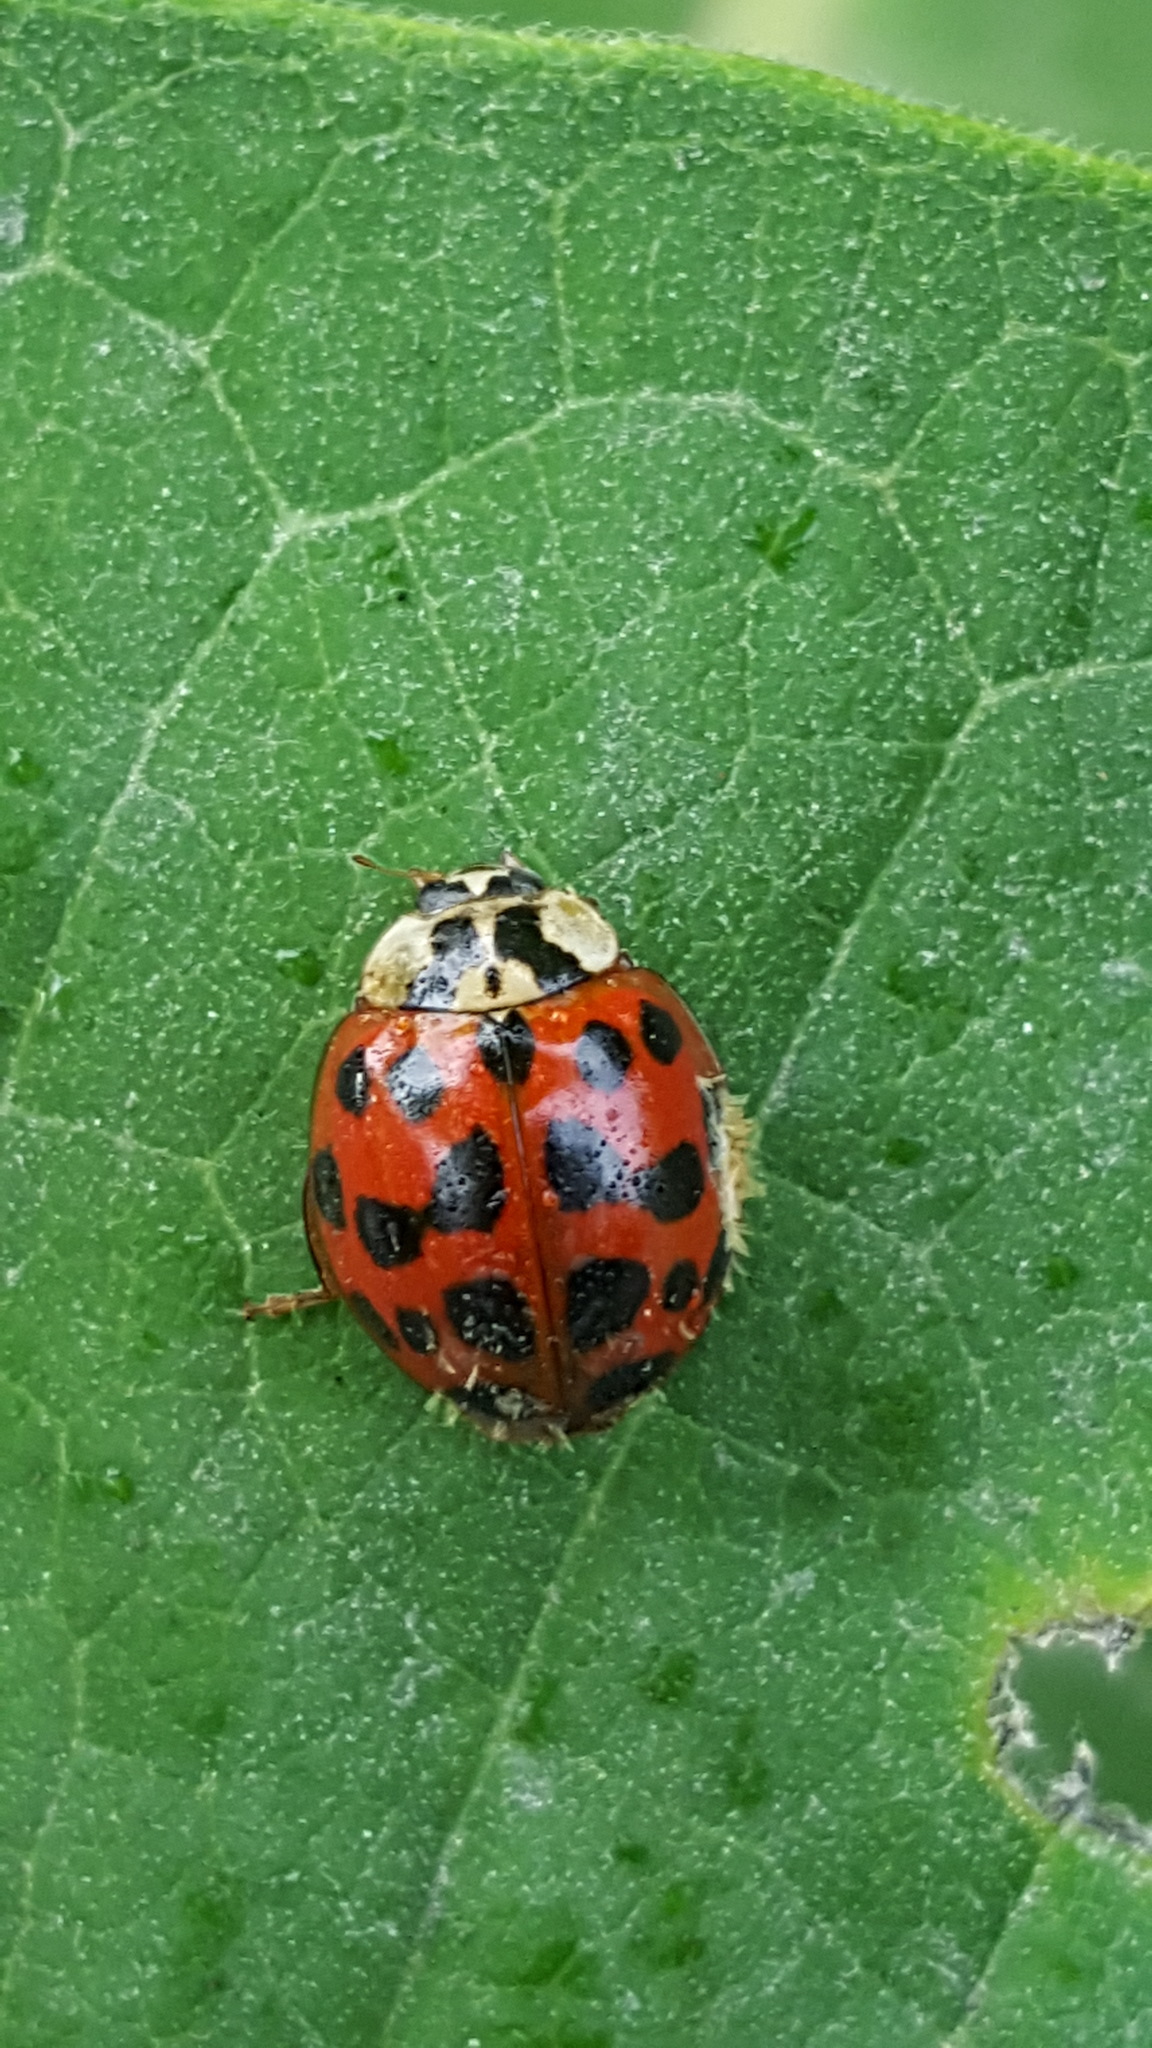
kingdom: Animalia
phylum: Arthropoda
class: Insecta
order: Coleoptera
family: Coccinellidae
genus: Harmonia
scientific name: Harmonia axyridis
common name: Harlequin ladybird
